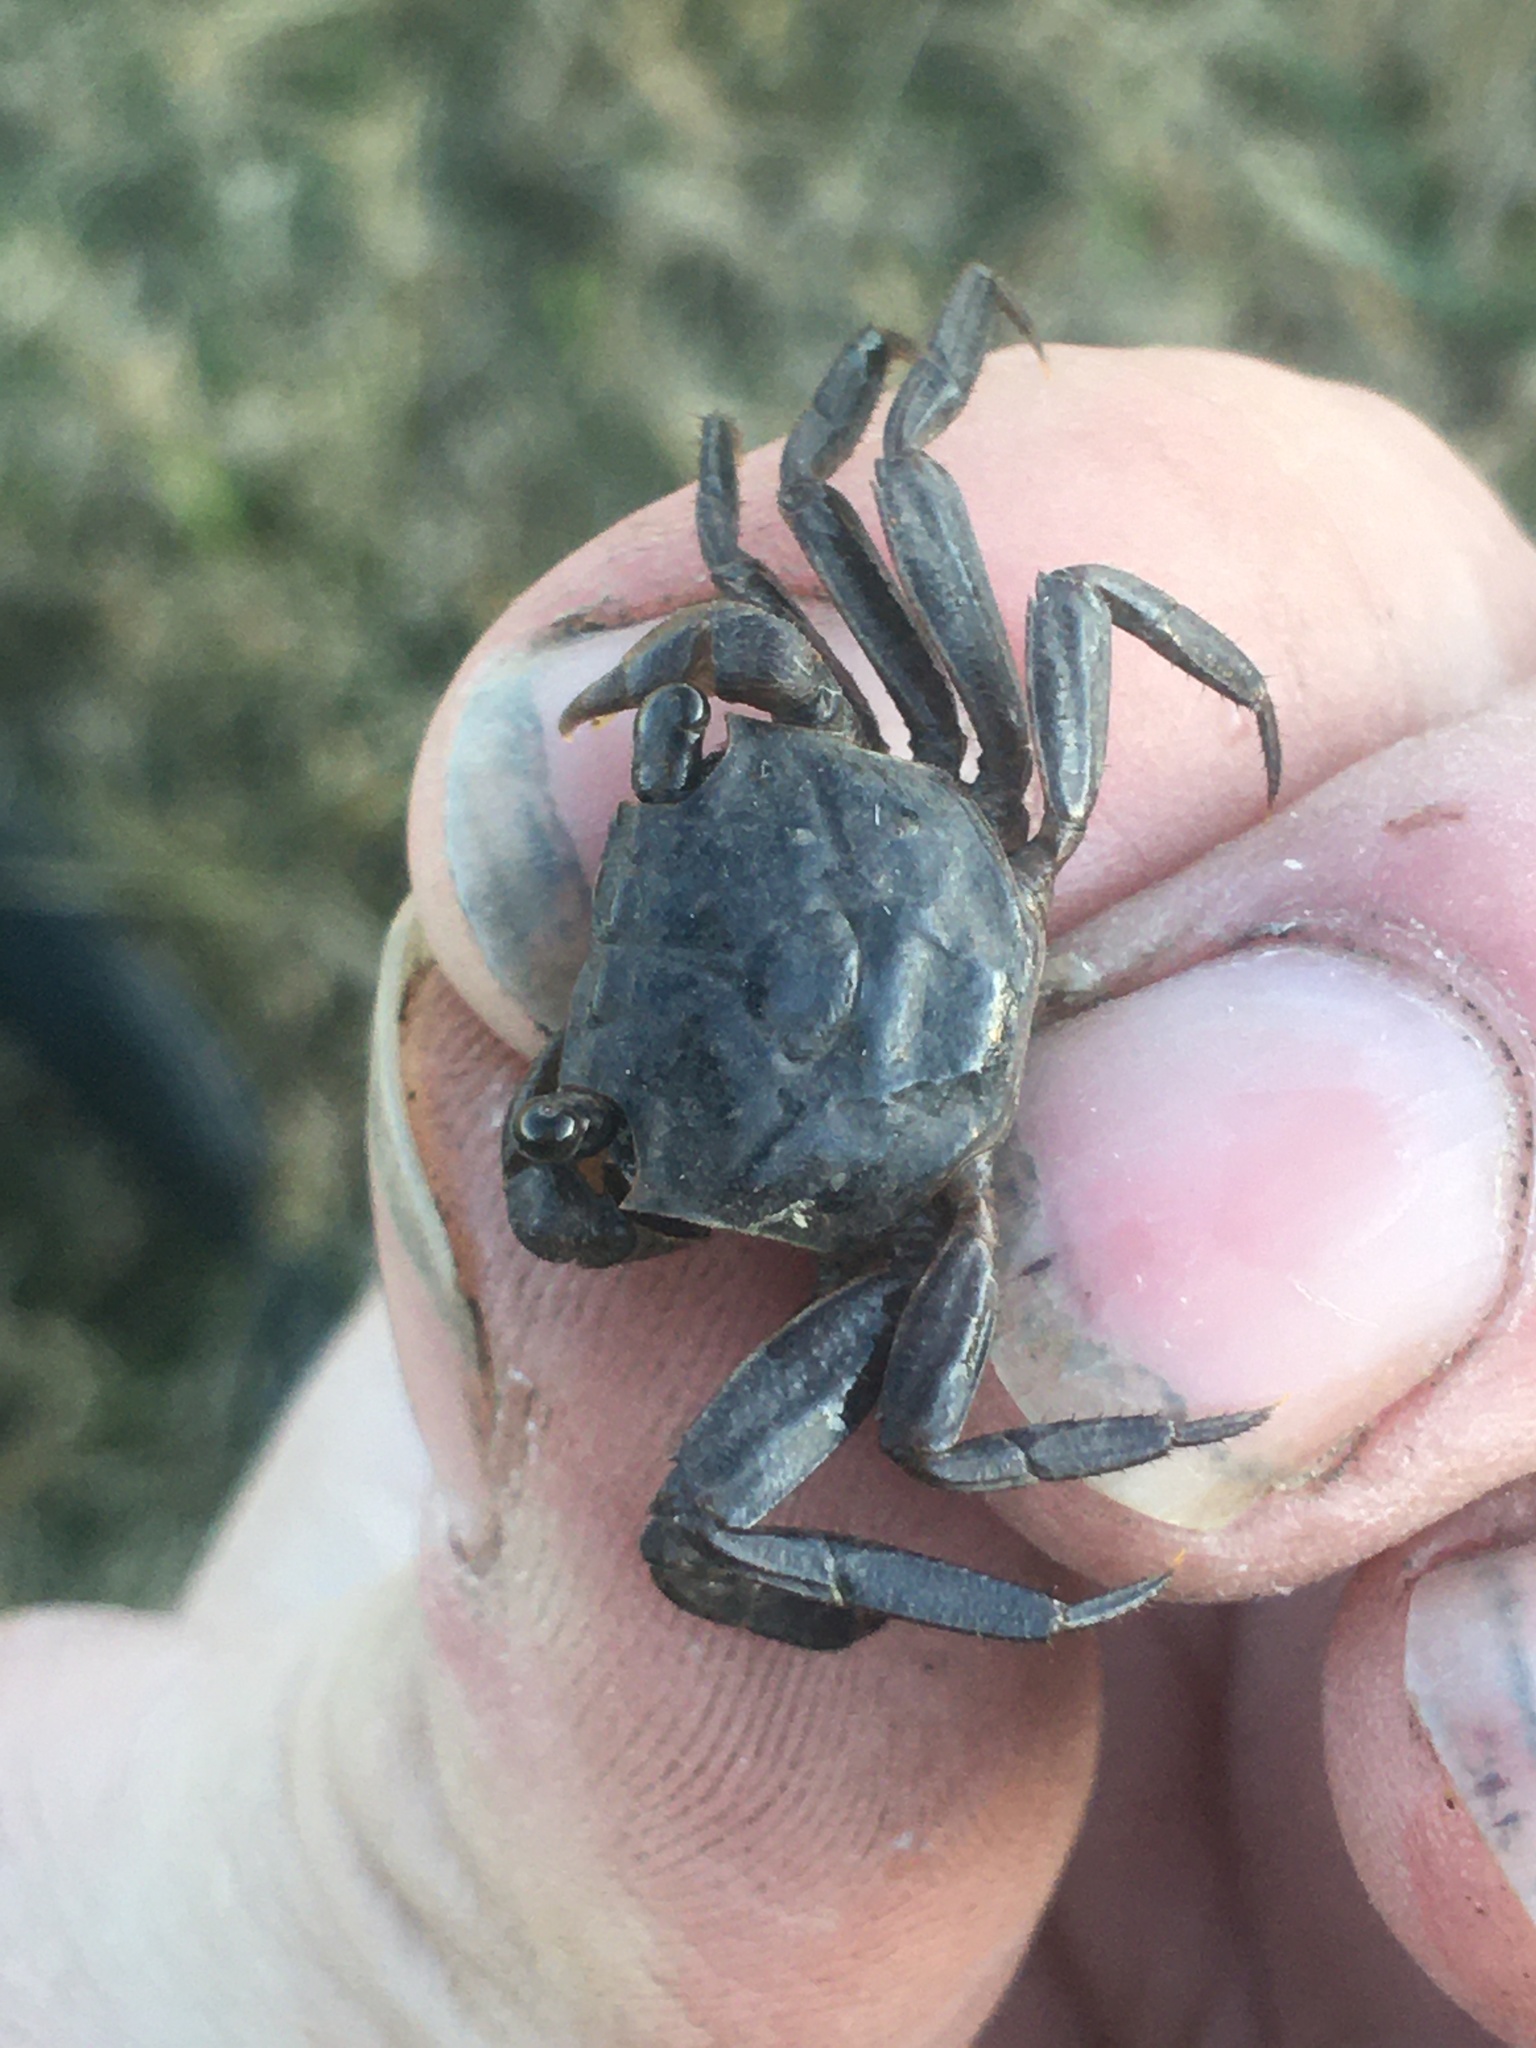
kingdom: Animalia
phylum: Arthropoda
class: Malacostraca
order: Decapoda
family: Sesarmidae
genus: Armases
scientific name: Armases cinereum
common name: Squareback marsh crab
